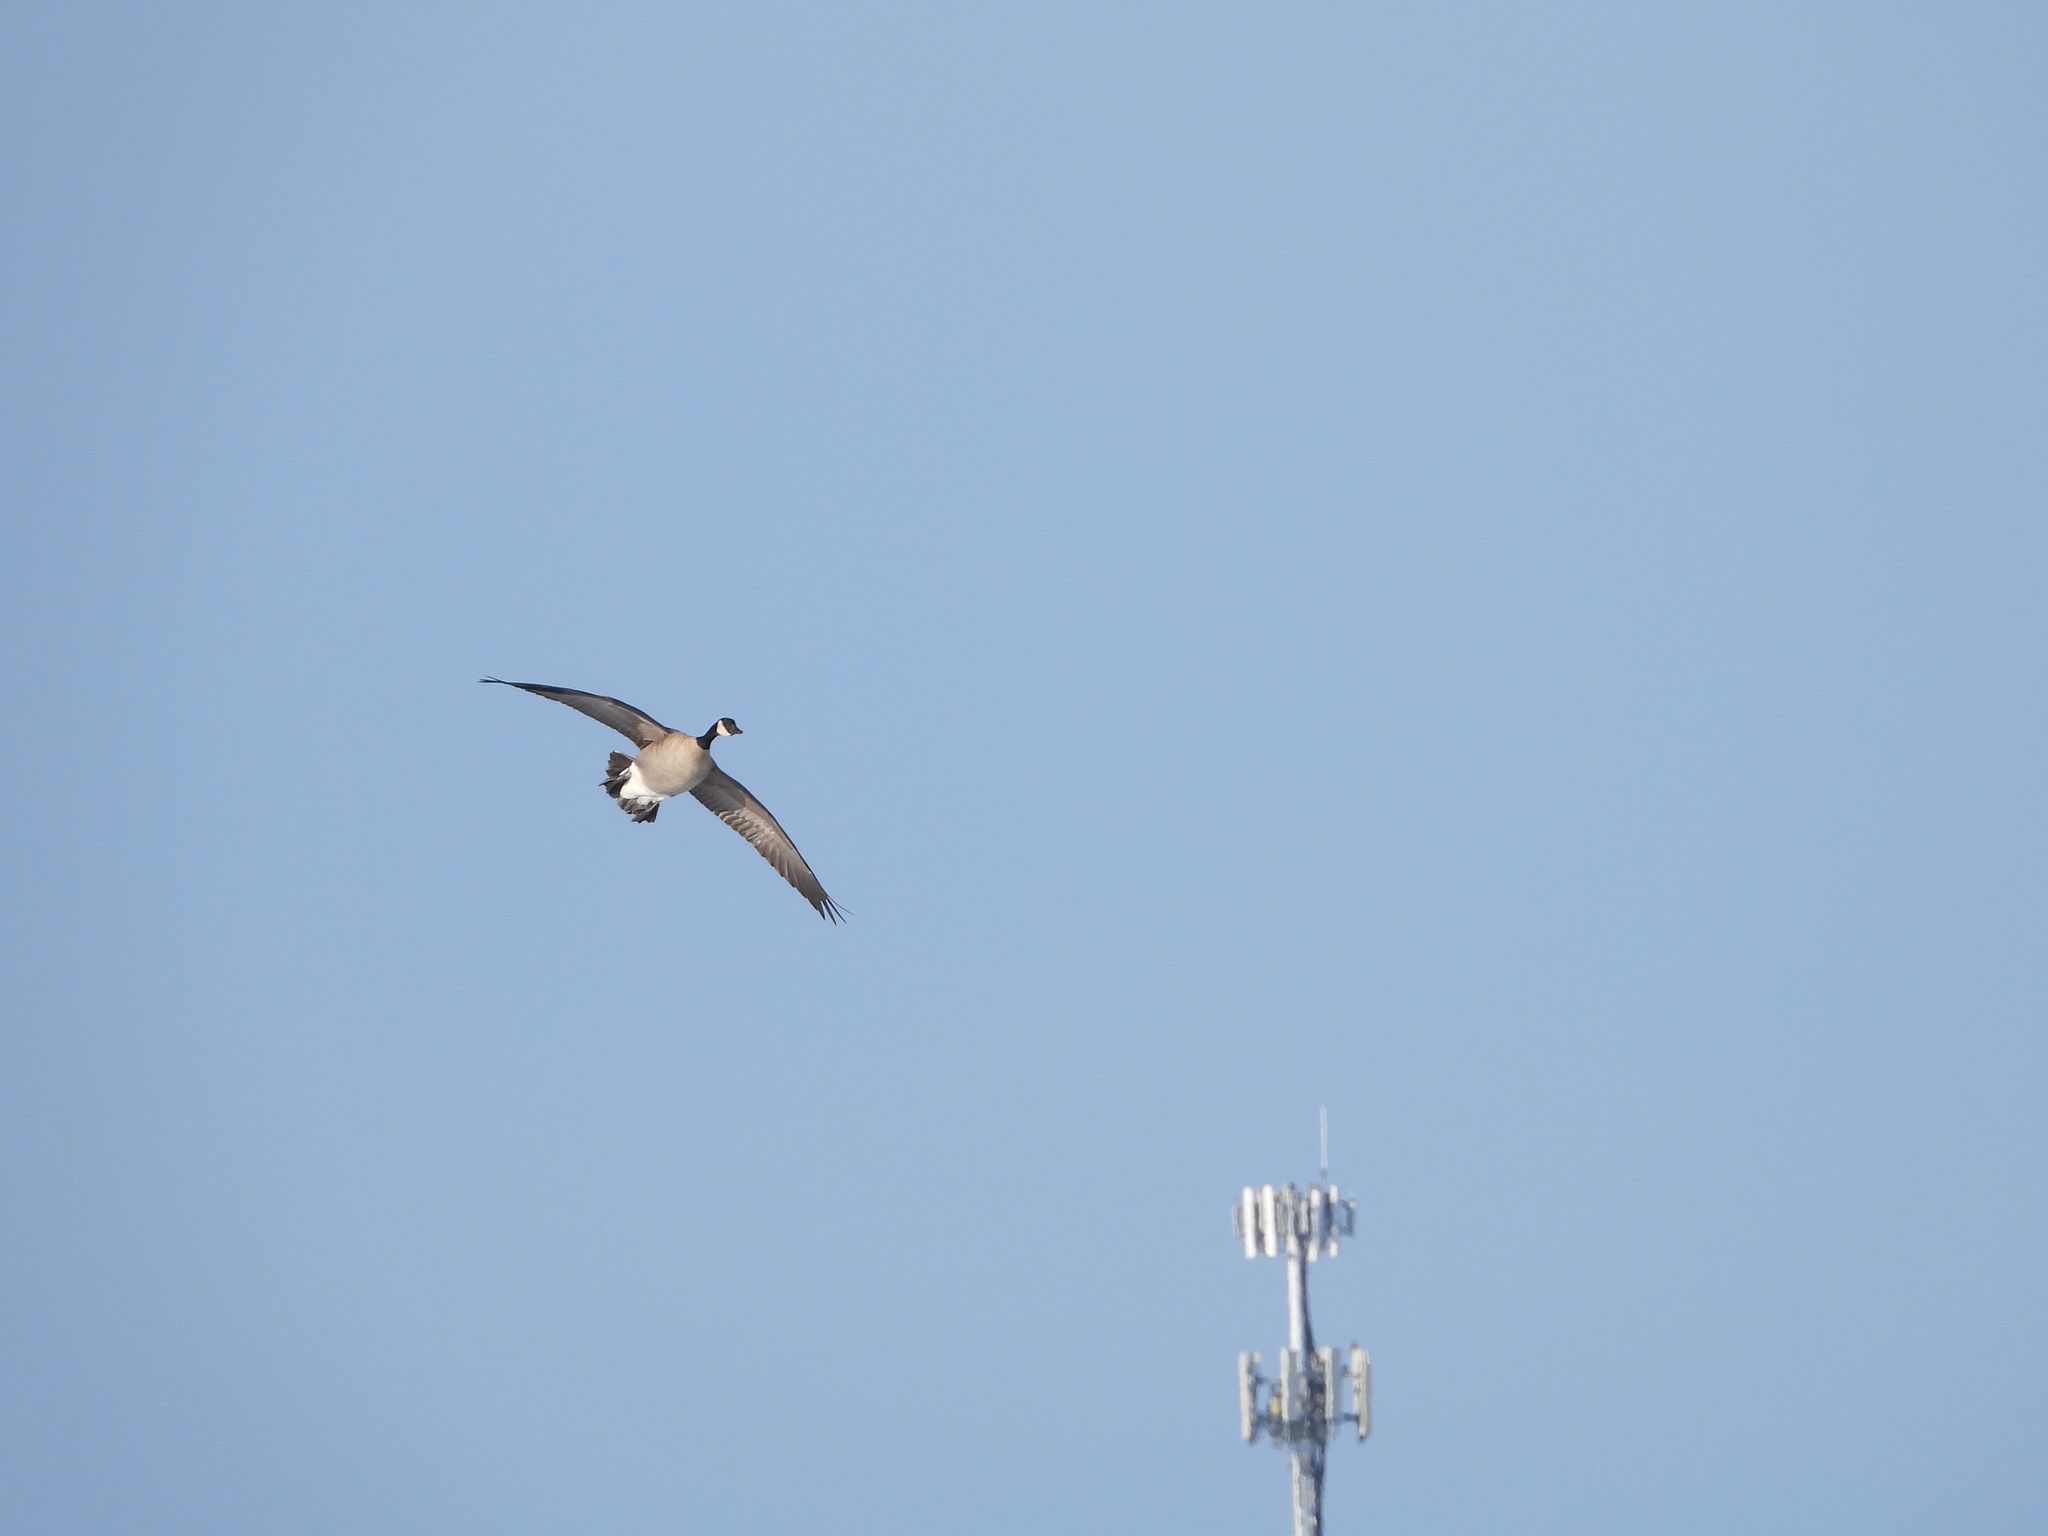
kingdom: Animalia
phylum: Chordata
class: Aves
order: Anseriformes
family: Anatidae
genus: Branta
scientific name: Branta hutchinsii
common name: Cackling goose
